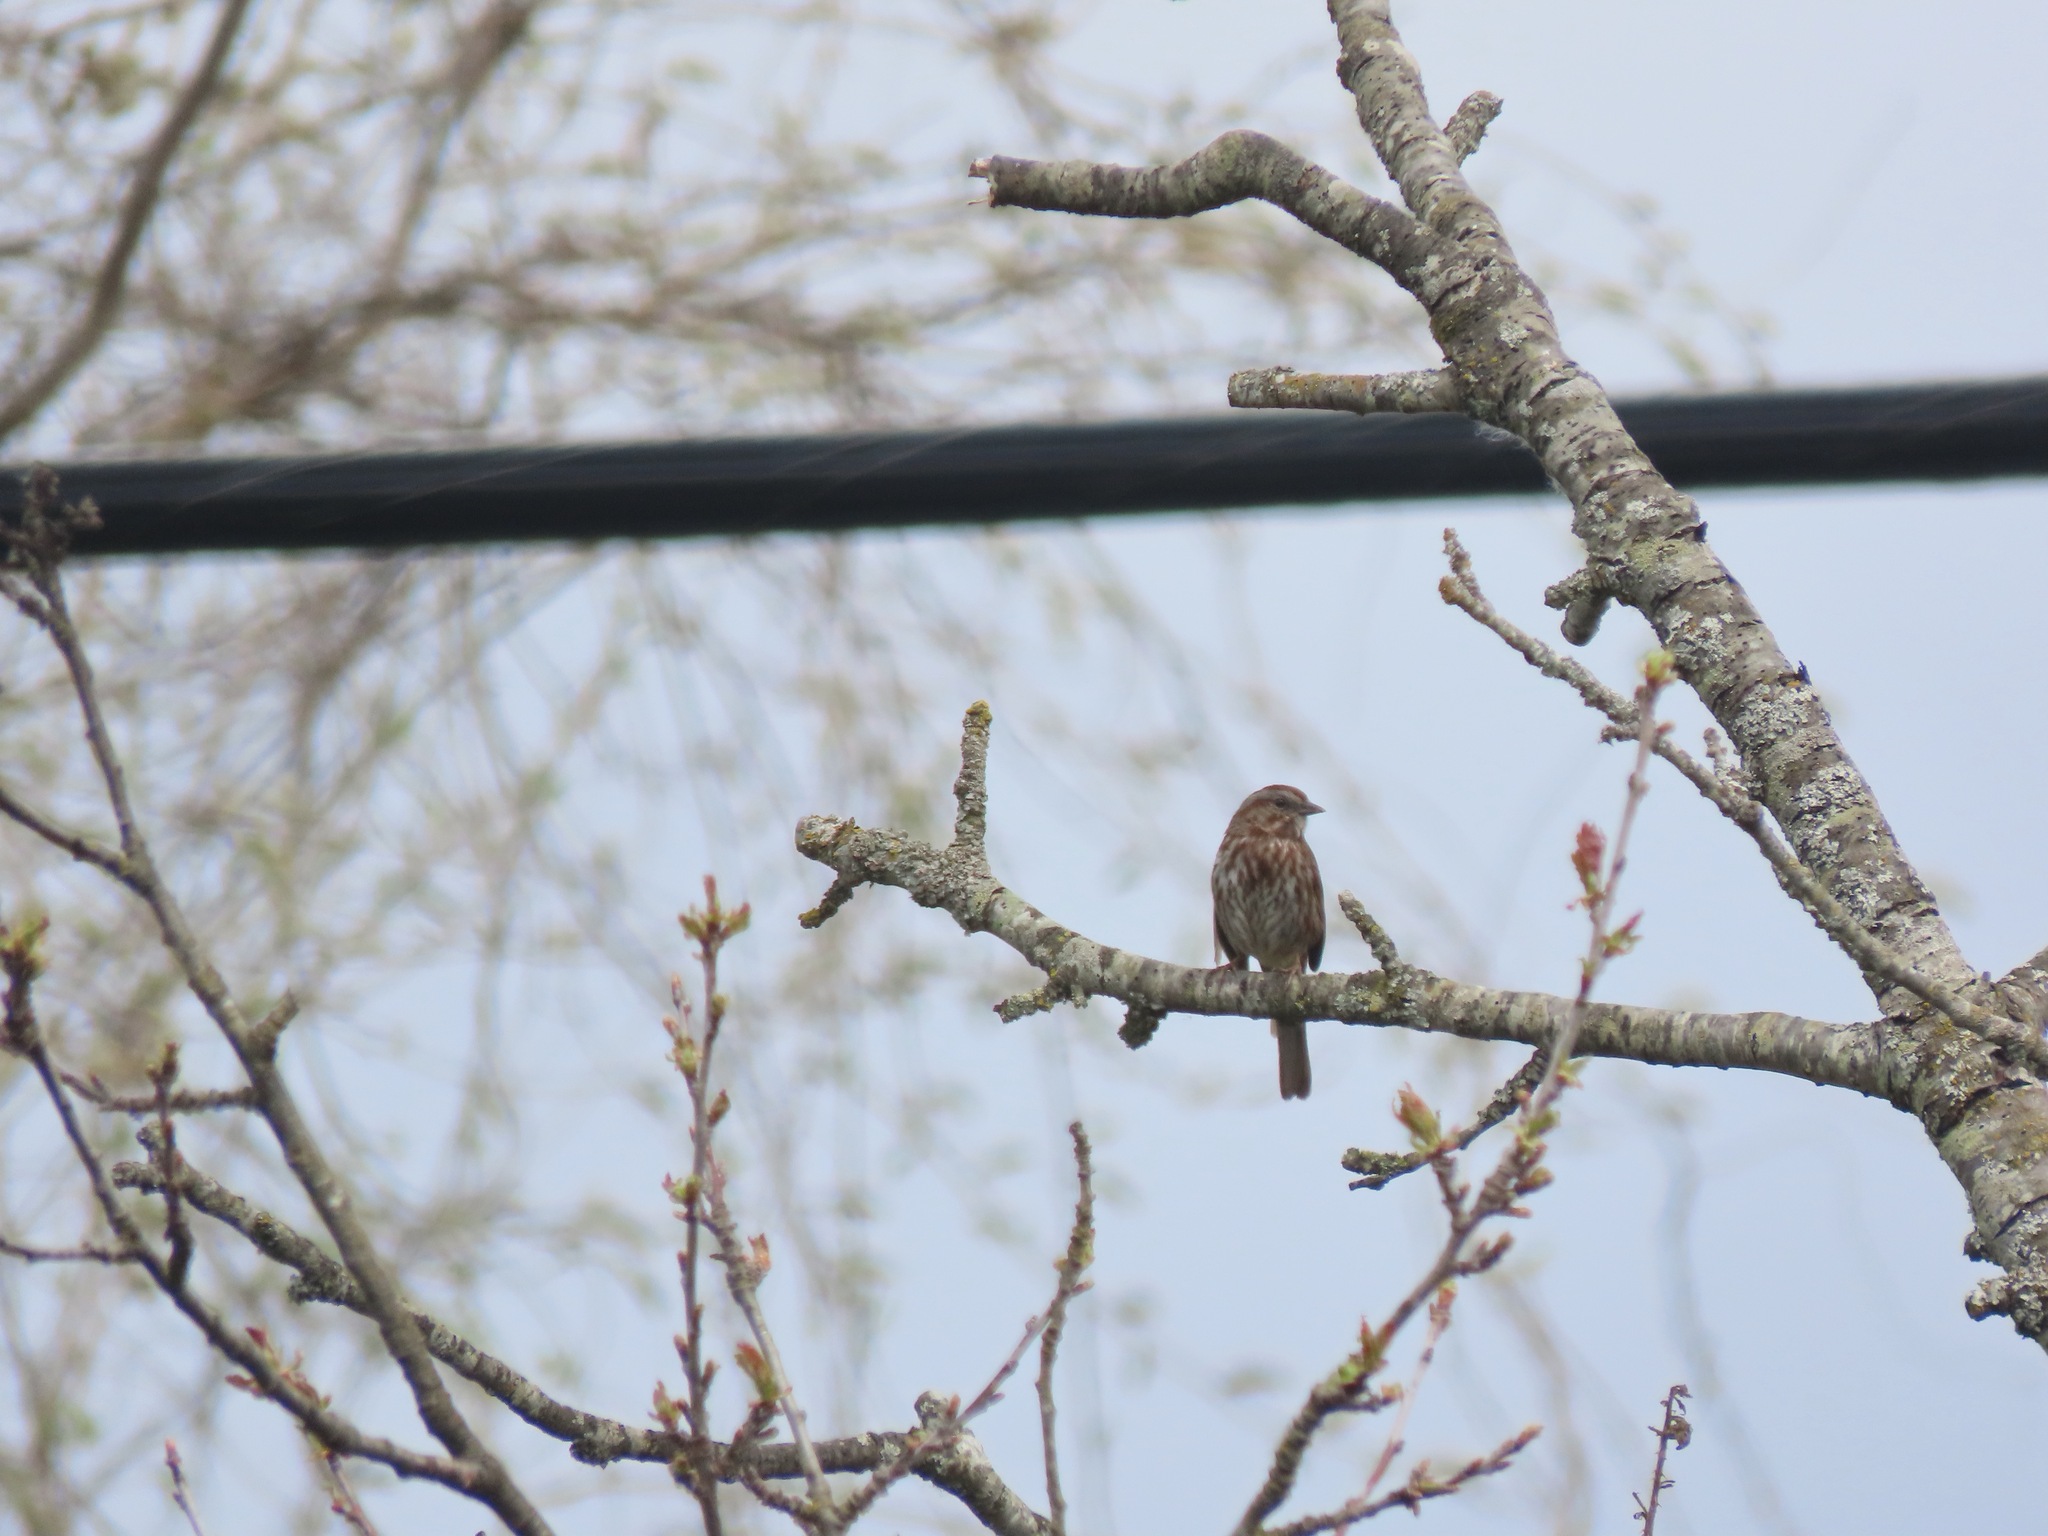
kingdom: Animalia
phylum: Chordata
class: Aves
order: Passeriformes
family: Passerellidae
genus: Melospiza
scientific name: Melospiza melodia
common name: Song sparrow
